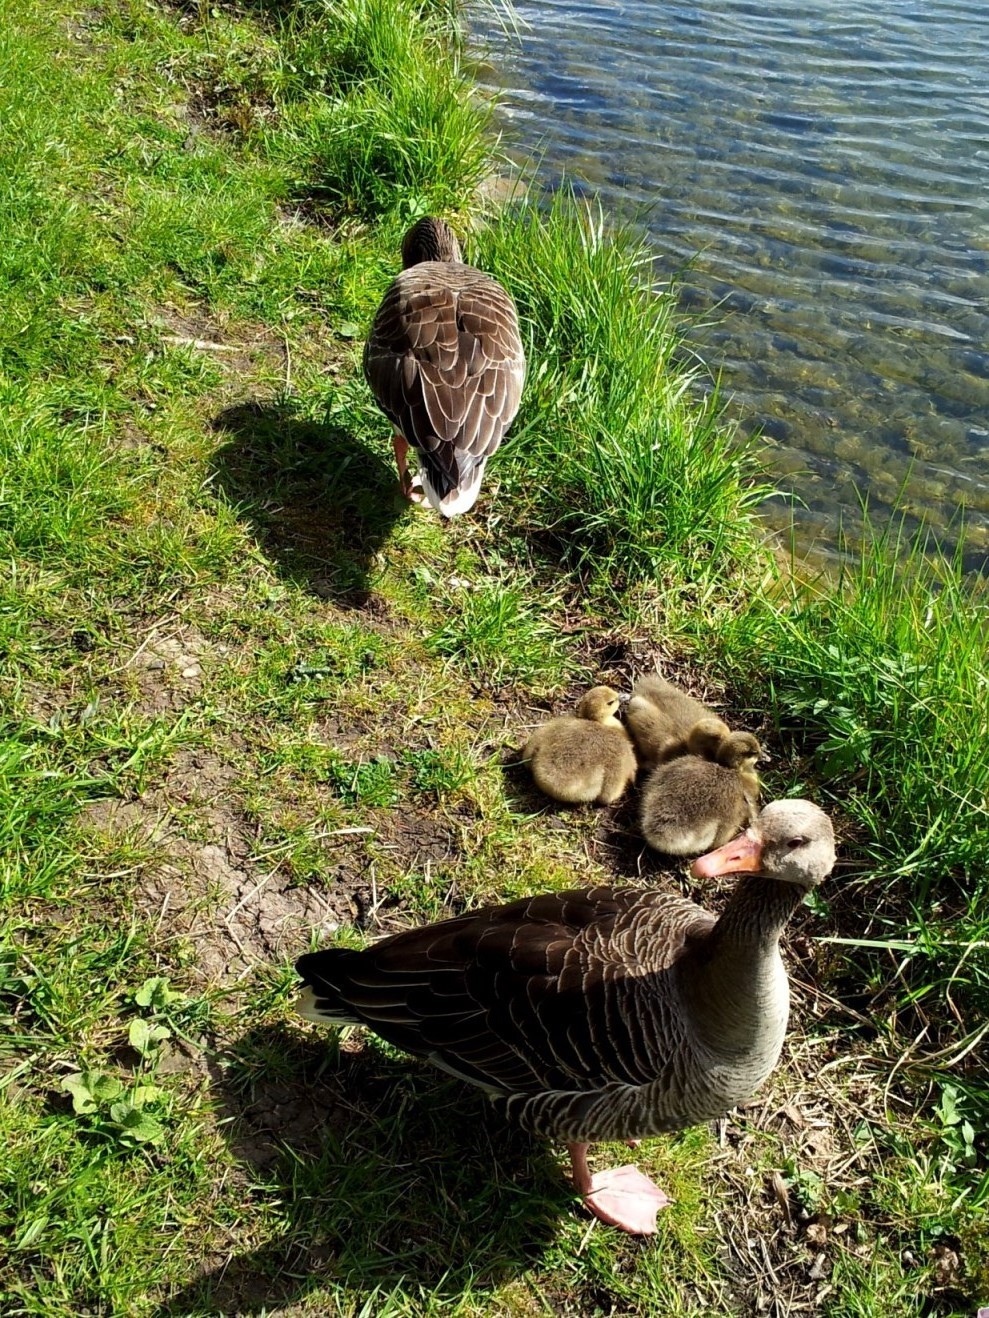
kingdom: Animalia
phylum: Chordata
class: Aves
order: Anseriformes
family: Anatidae
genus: Anser
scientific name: Anser anser
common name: Greylag goose
